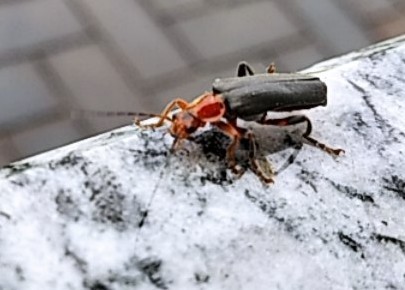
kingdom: Animalia
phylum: Arthropoda
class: Insecta
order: Coleoptera
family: Cantharidae
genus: Cantharis
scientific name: Cantharis livida
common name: Livid soldier beetle
